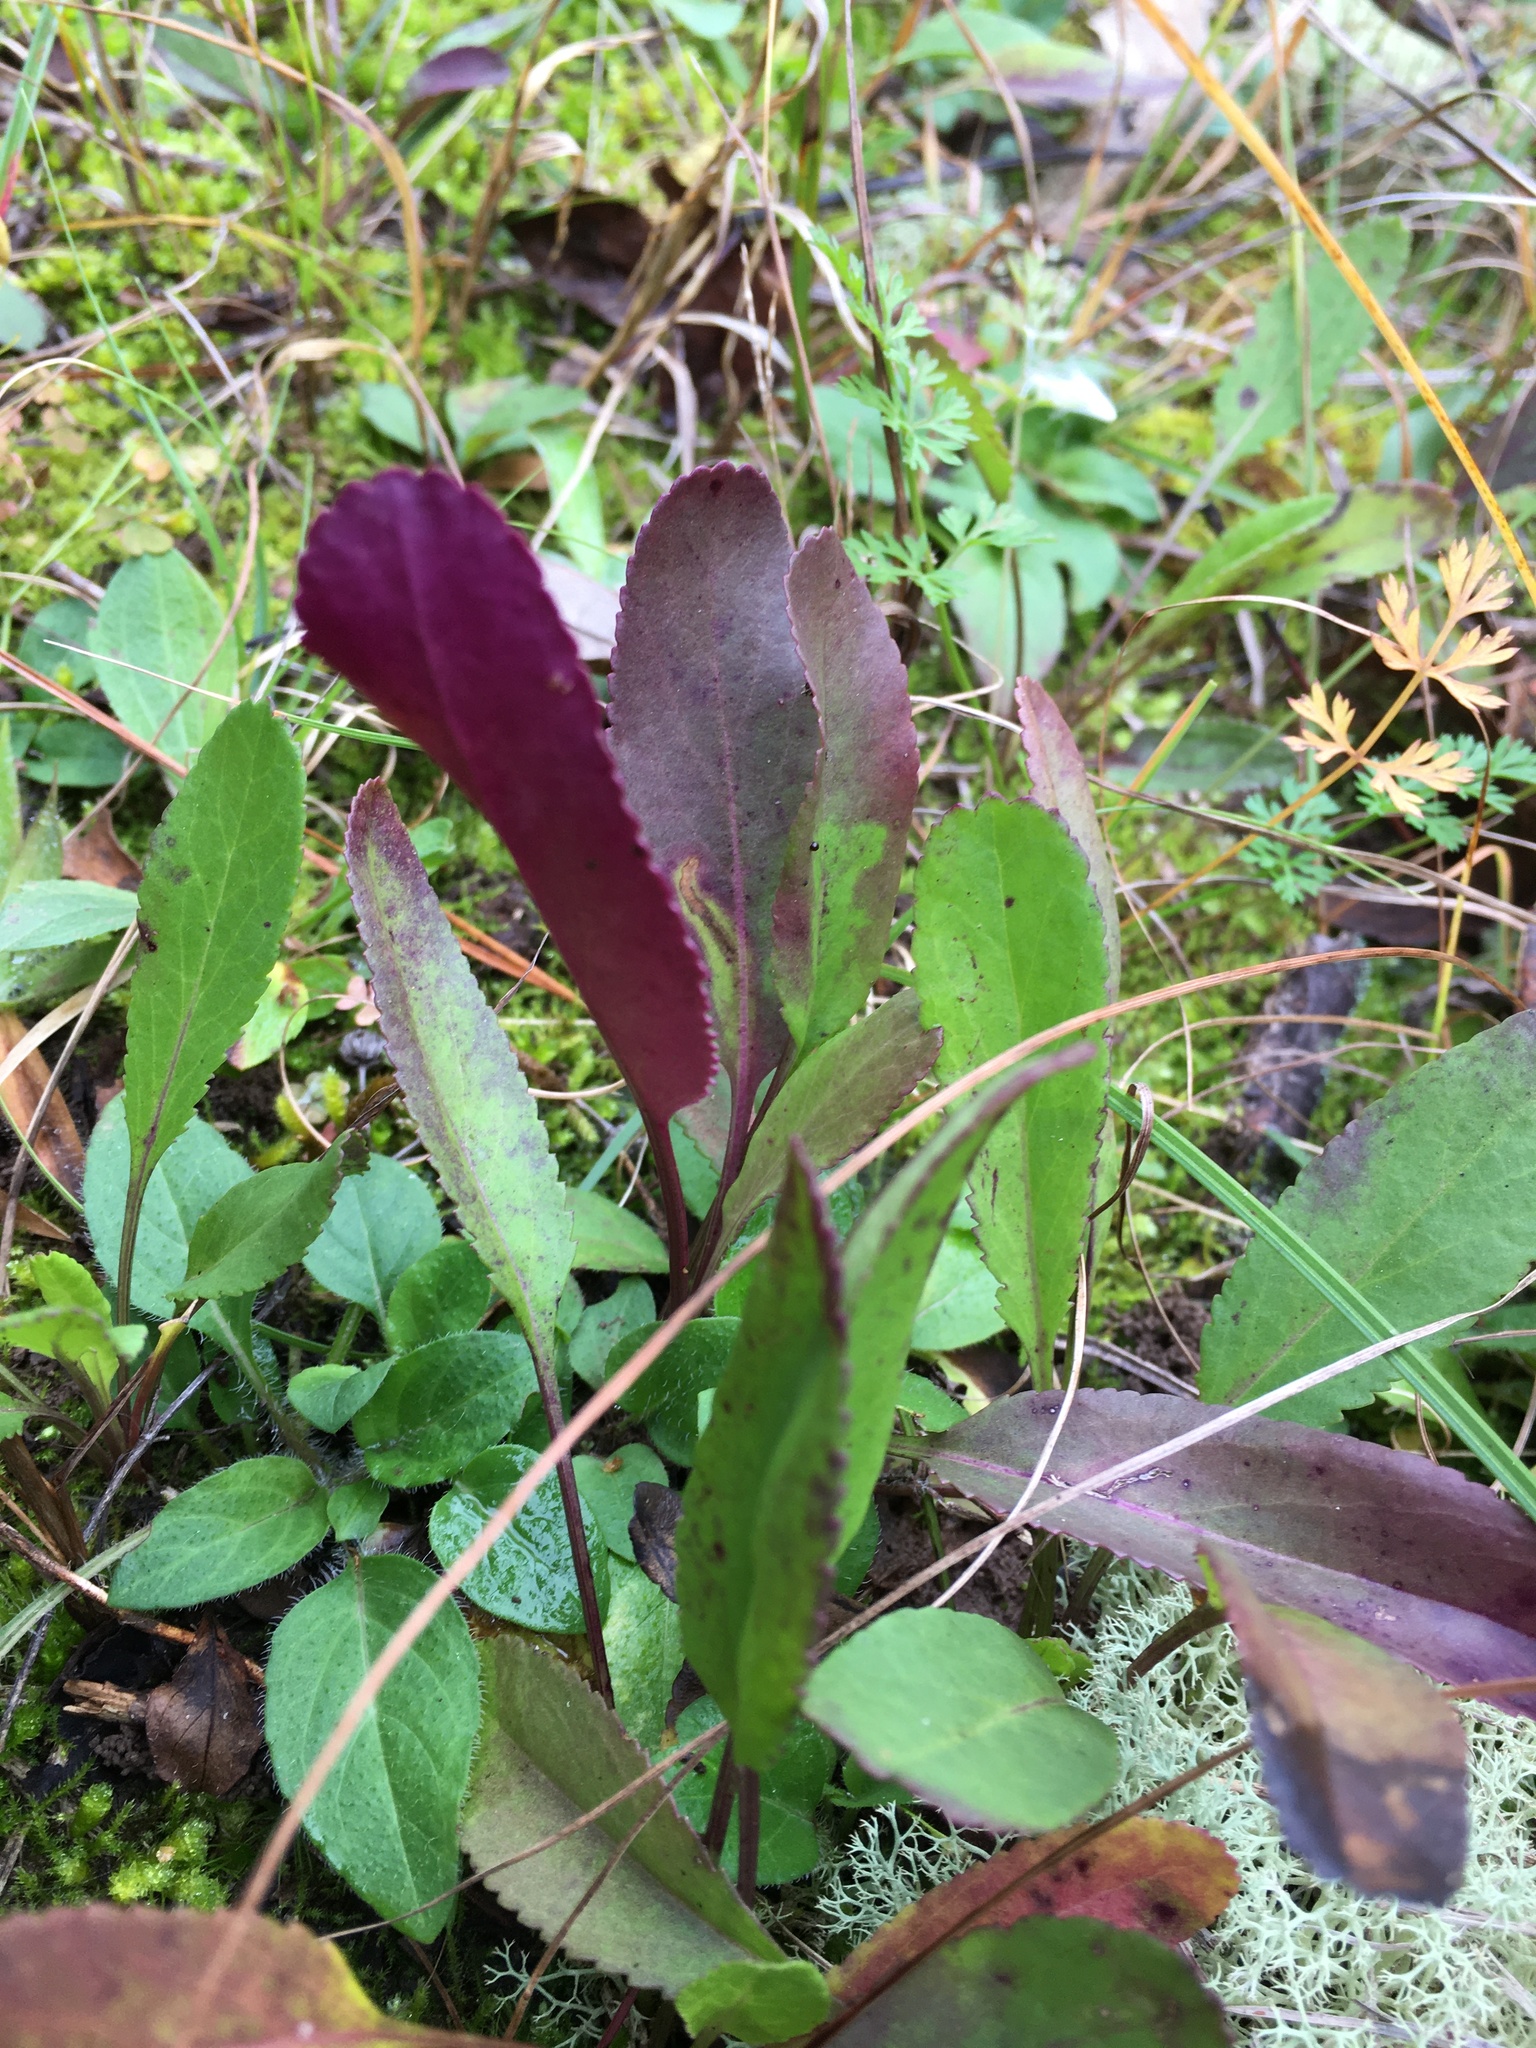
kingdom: Plantae
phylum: Tracheophyta
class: Magnoliopsida
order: Asterales
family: Asteraceae
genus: Packera
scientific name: Packera anonyma
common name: Small ragwort
